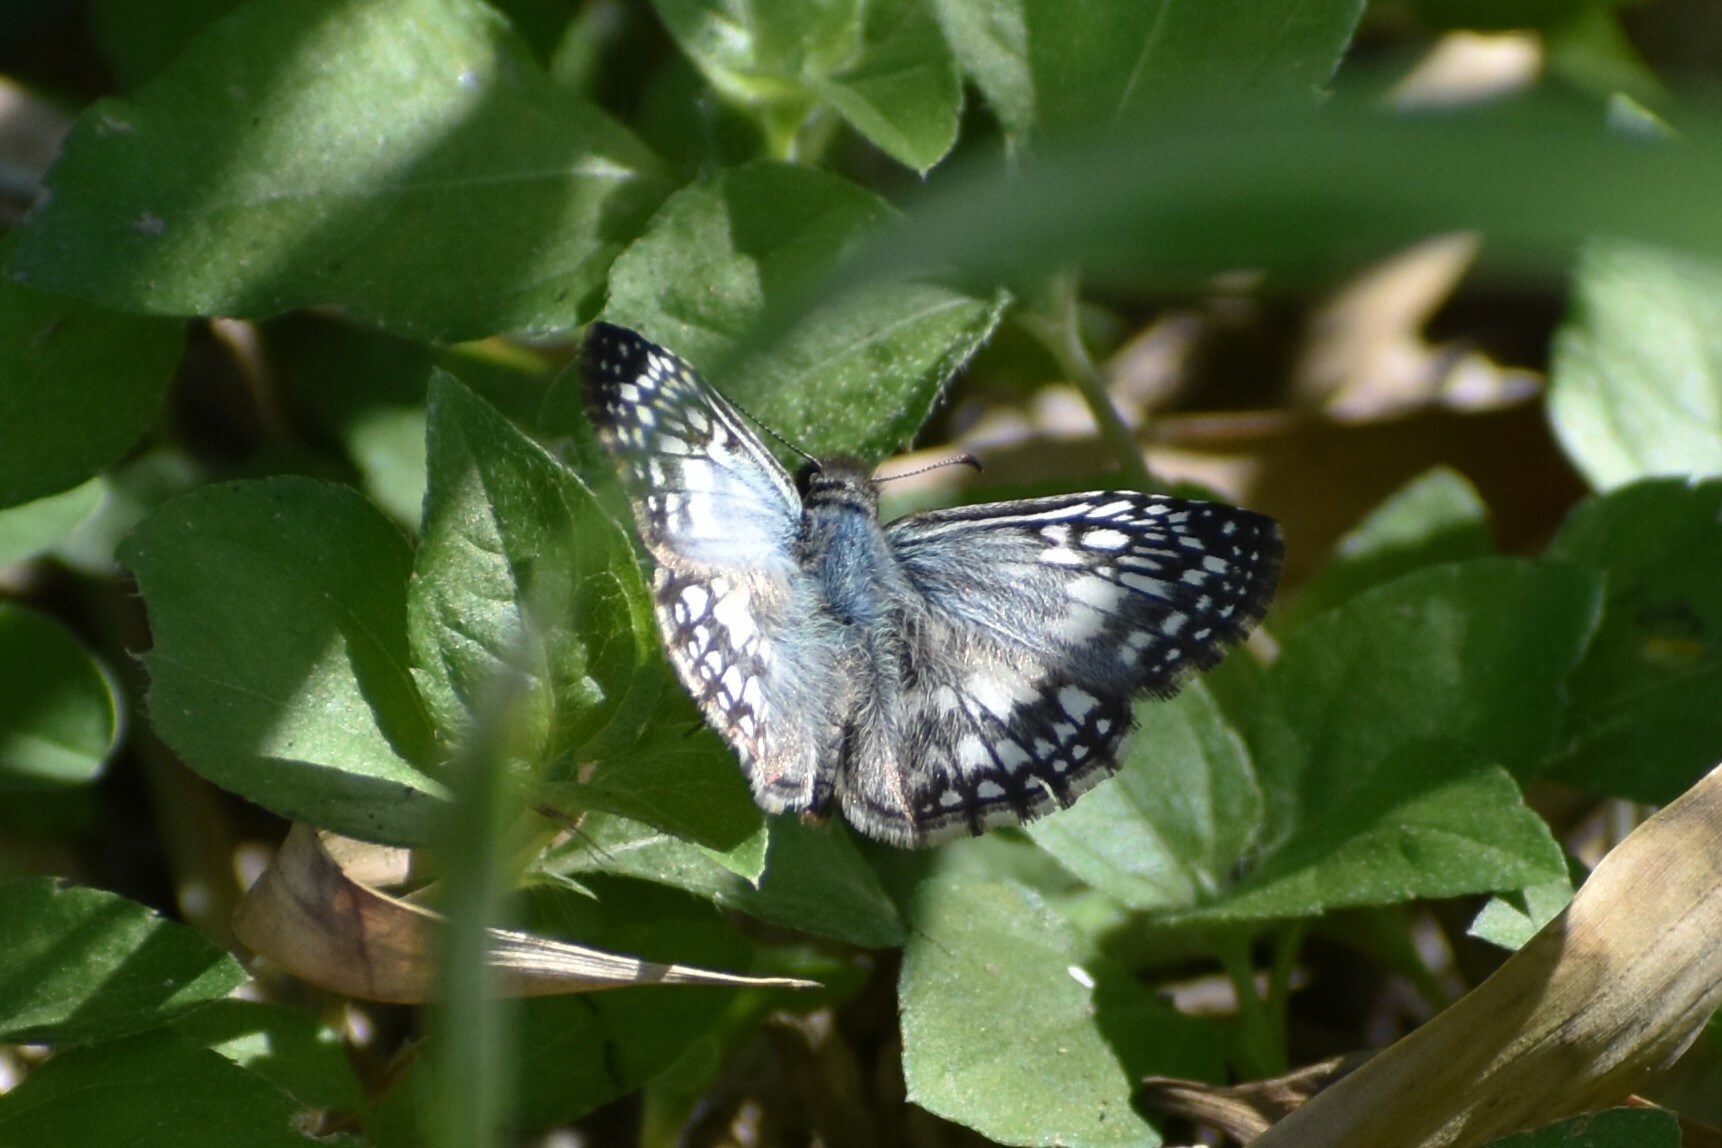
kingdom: Animalia
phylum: Arthropoda
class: Insecta
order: Lepidoptera
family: Hesperiidae
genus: Pyrgus
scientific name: Pyrgus oileus
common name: Tropical checkered-skipper
